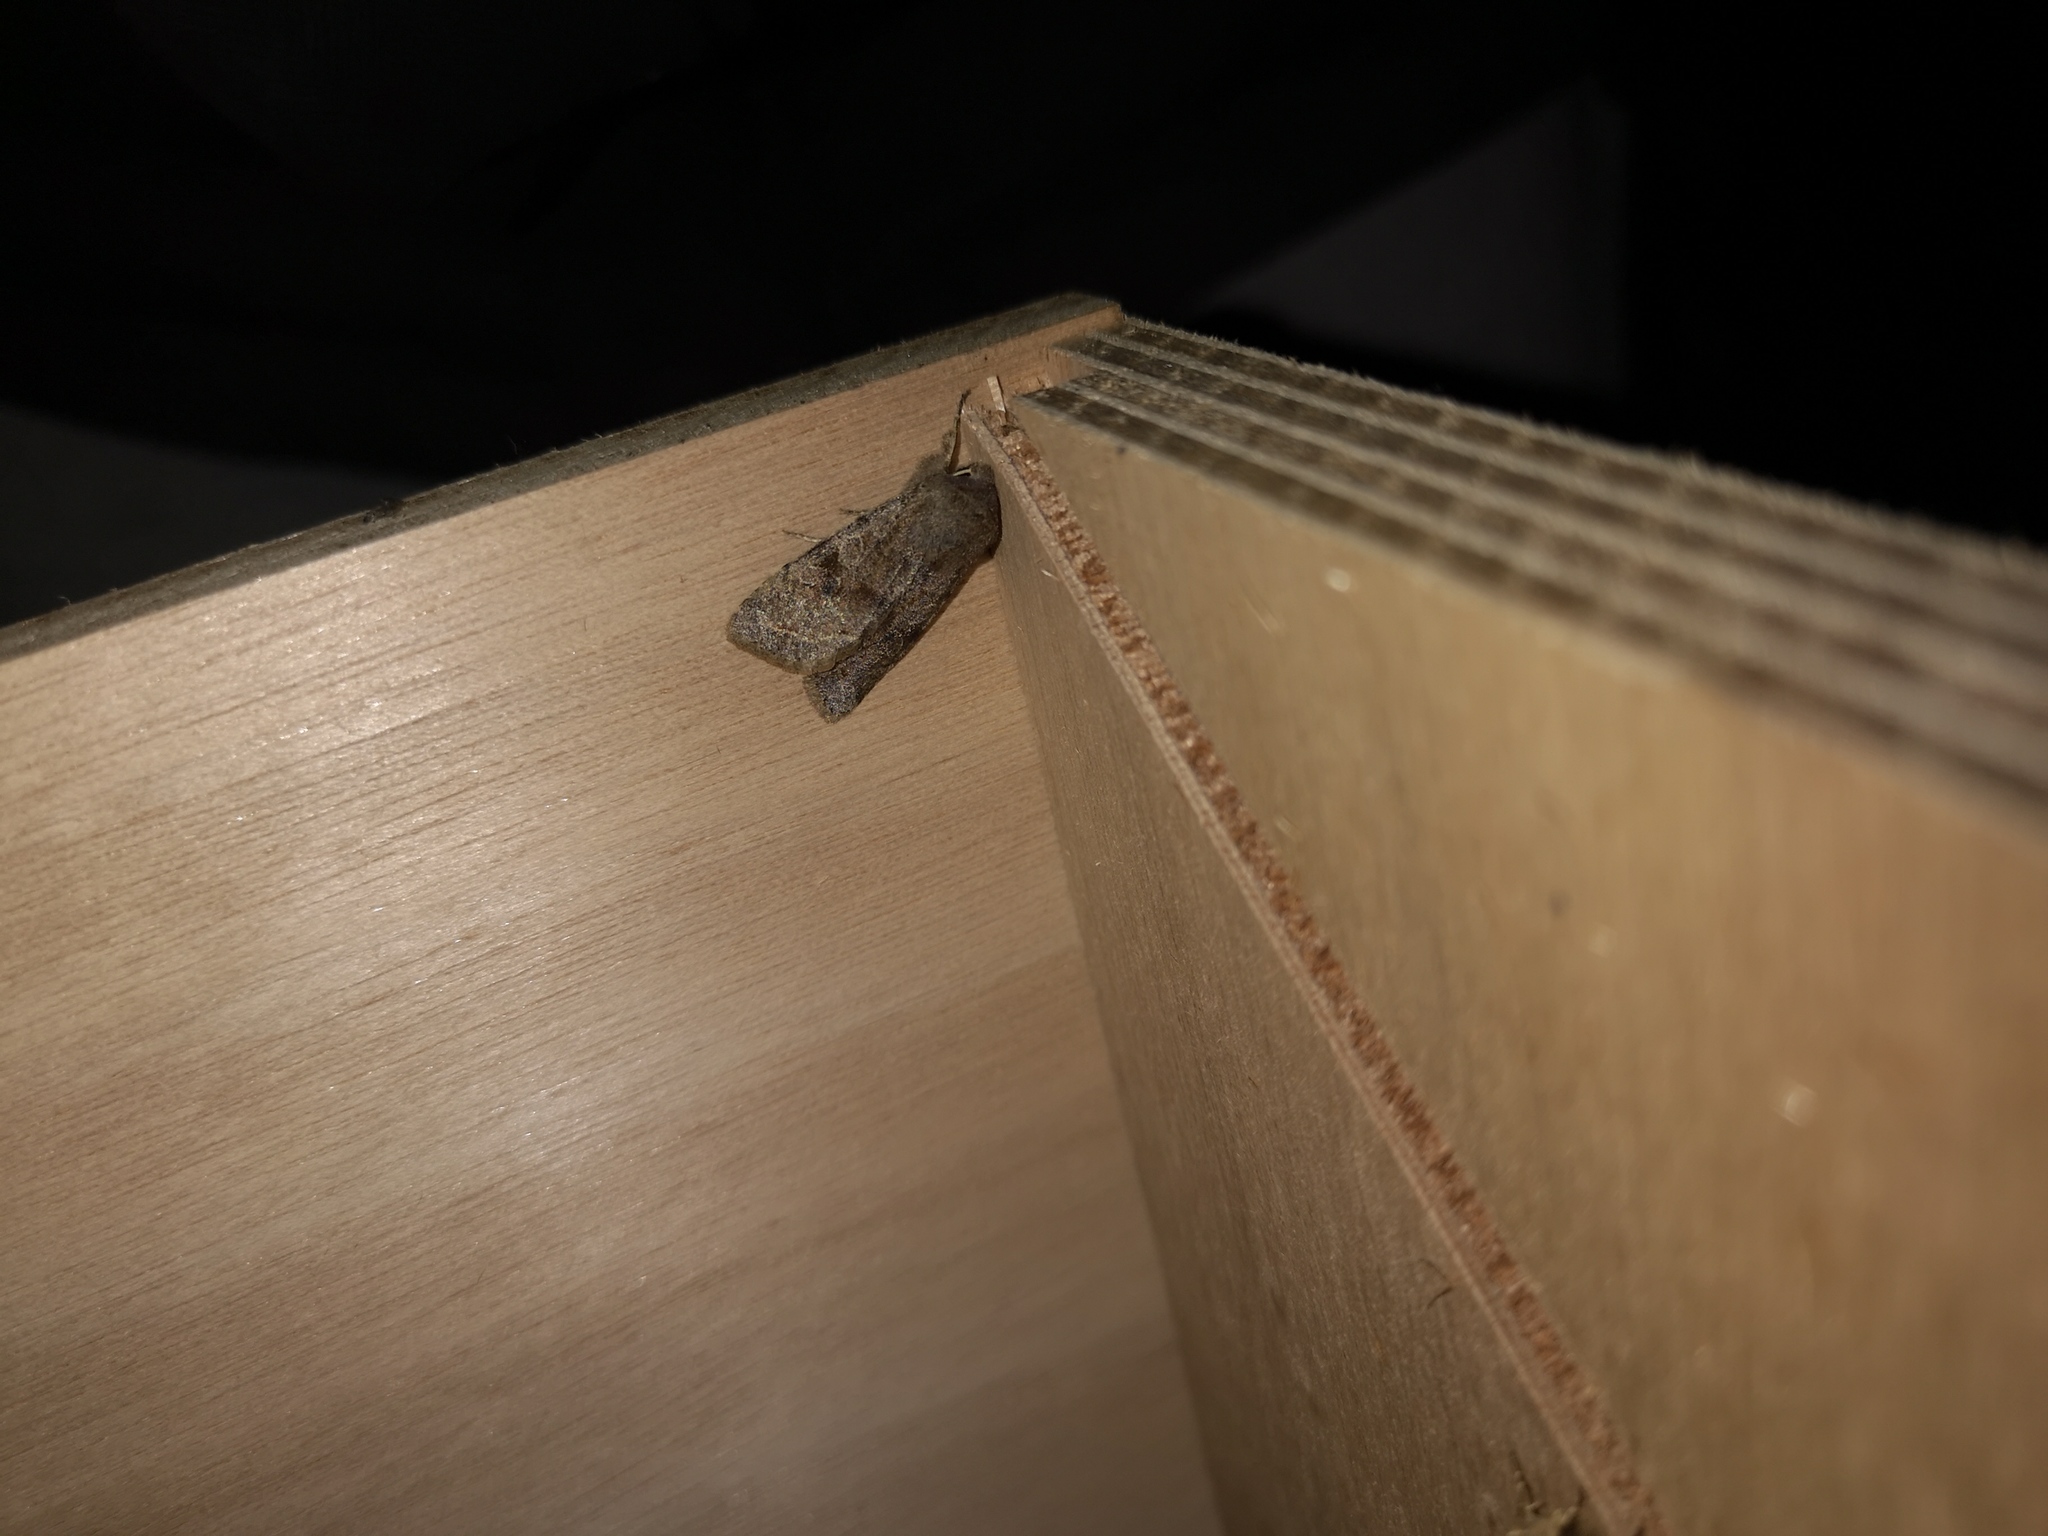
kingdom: Animalia
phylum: Arthropoda
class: Insecta
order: Lepidoptera
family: Noctuidae
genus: Orthosia
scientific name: Orthosia incerta
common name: Clouded drab
